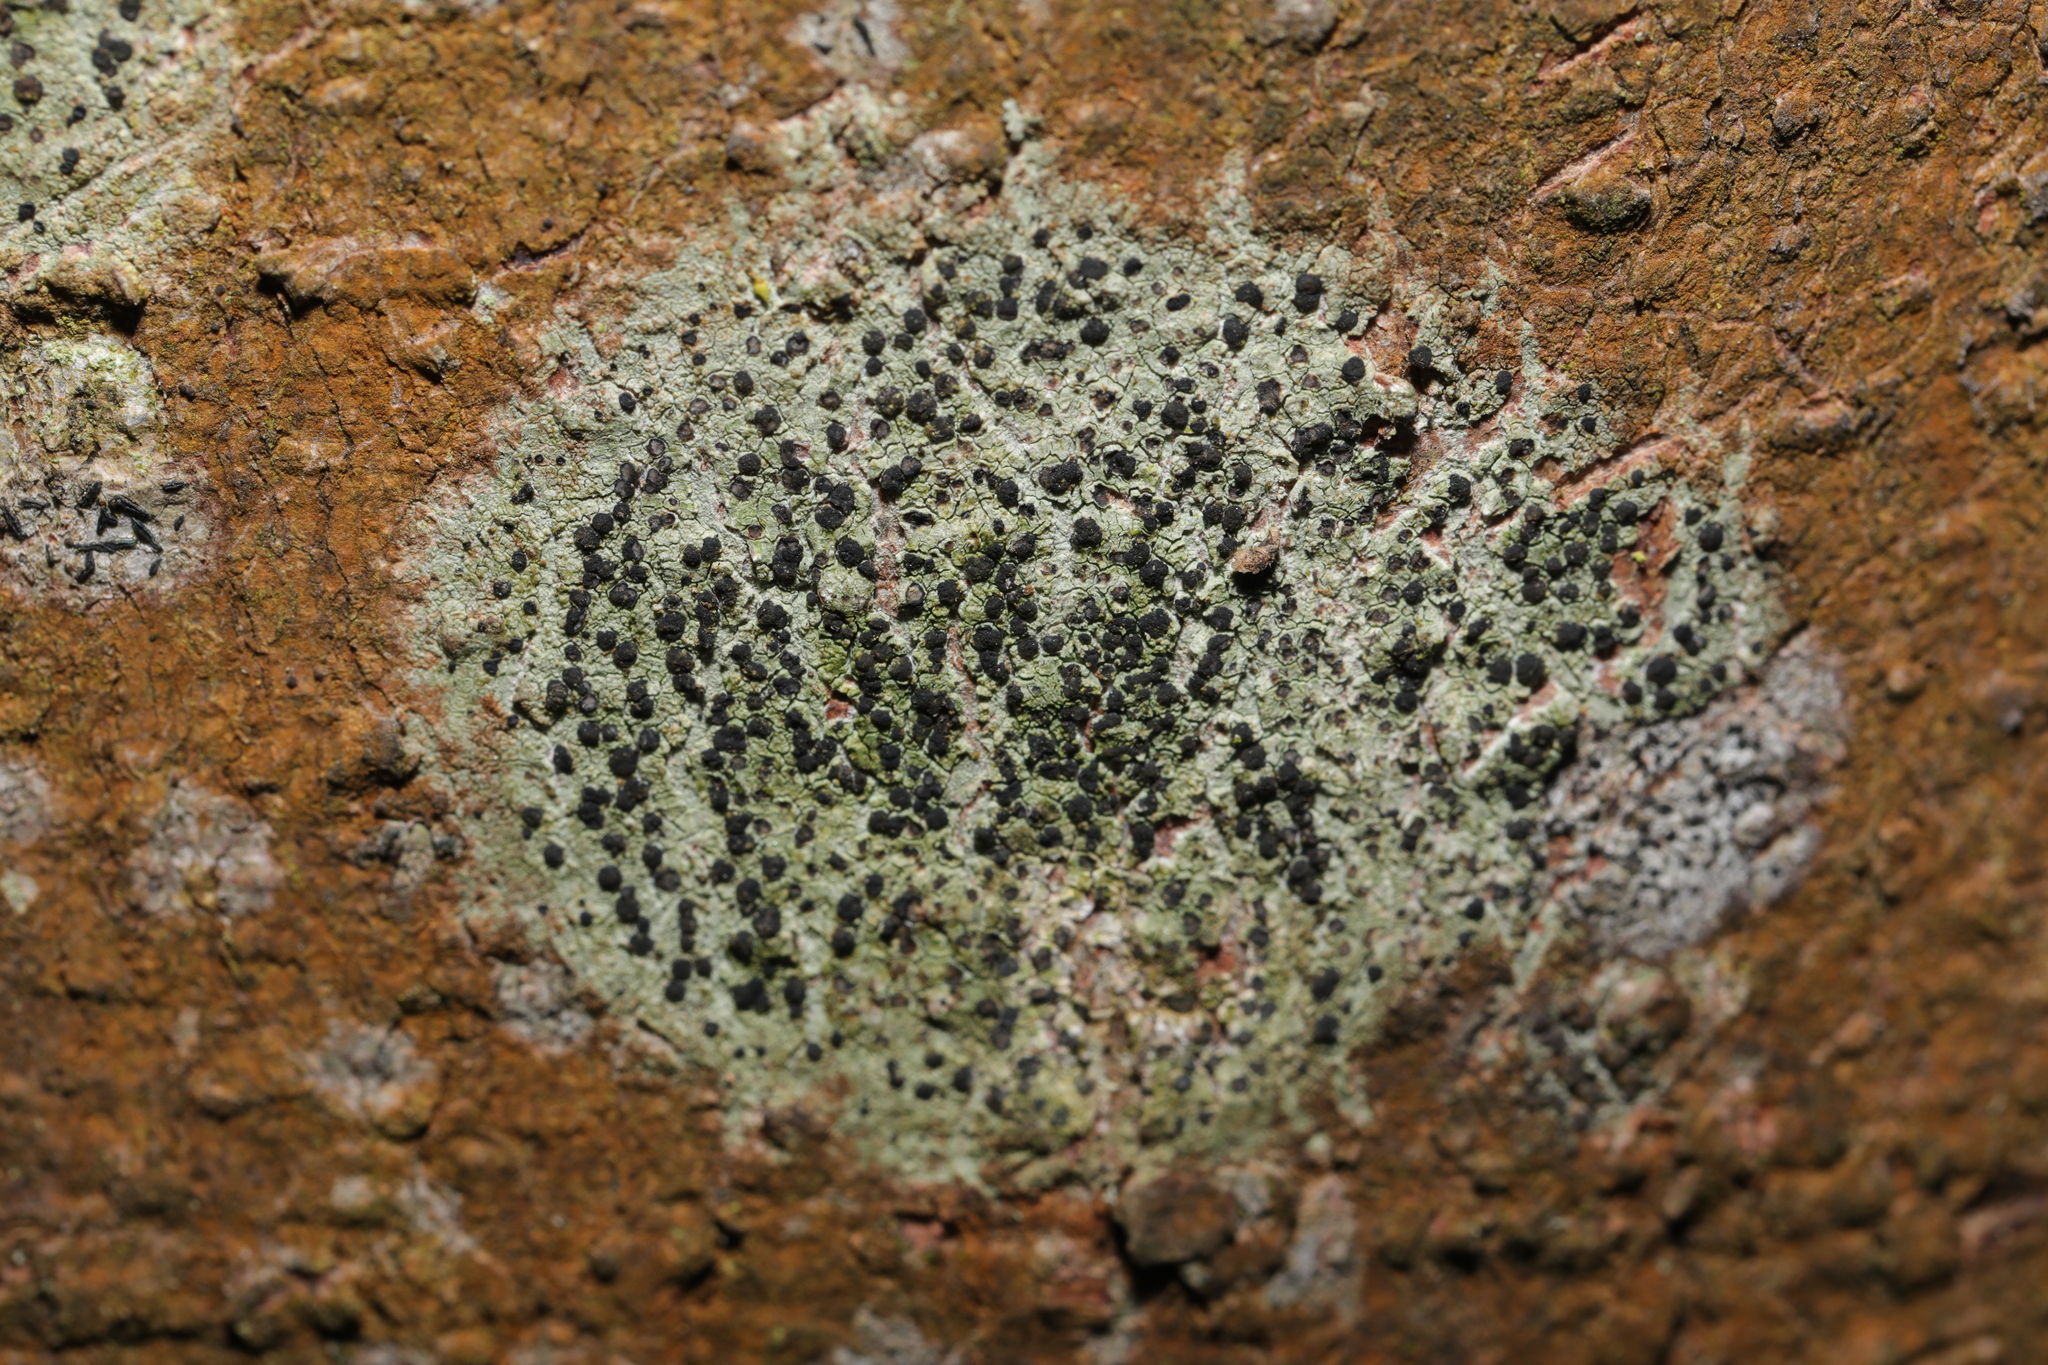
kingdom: Fungi
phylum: Ascomycota
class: Lecanoromycetes
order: Lecanorales
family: Lecanoraceae
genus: Lecidella
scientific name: Lecidella elaeochroma
